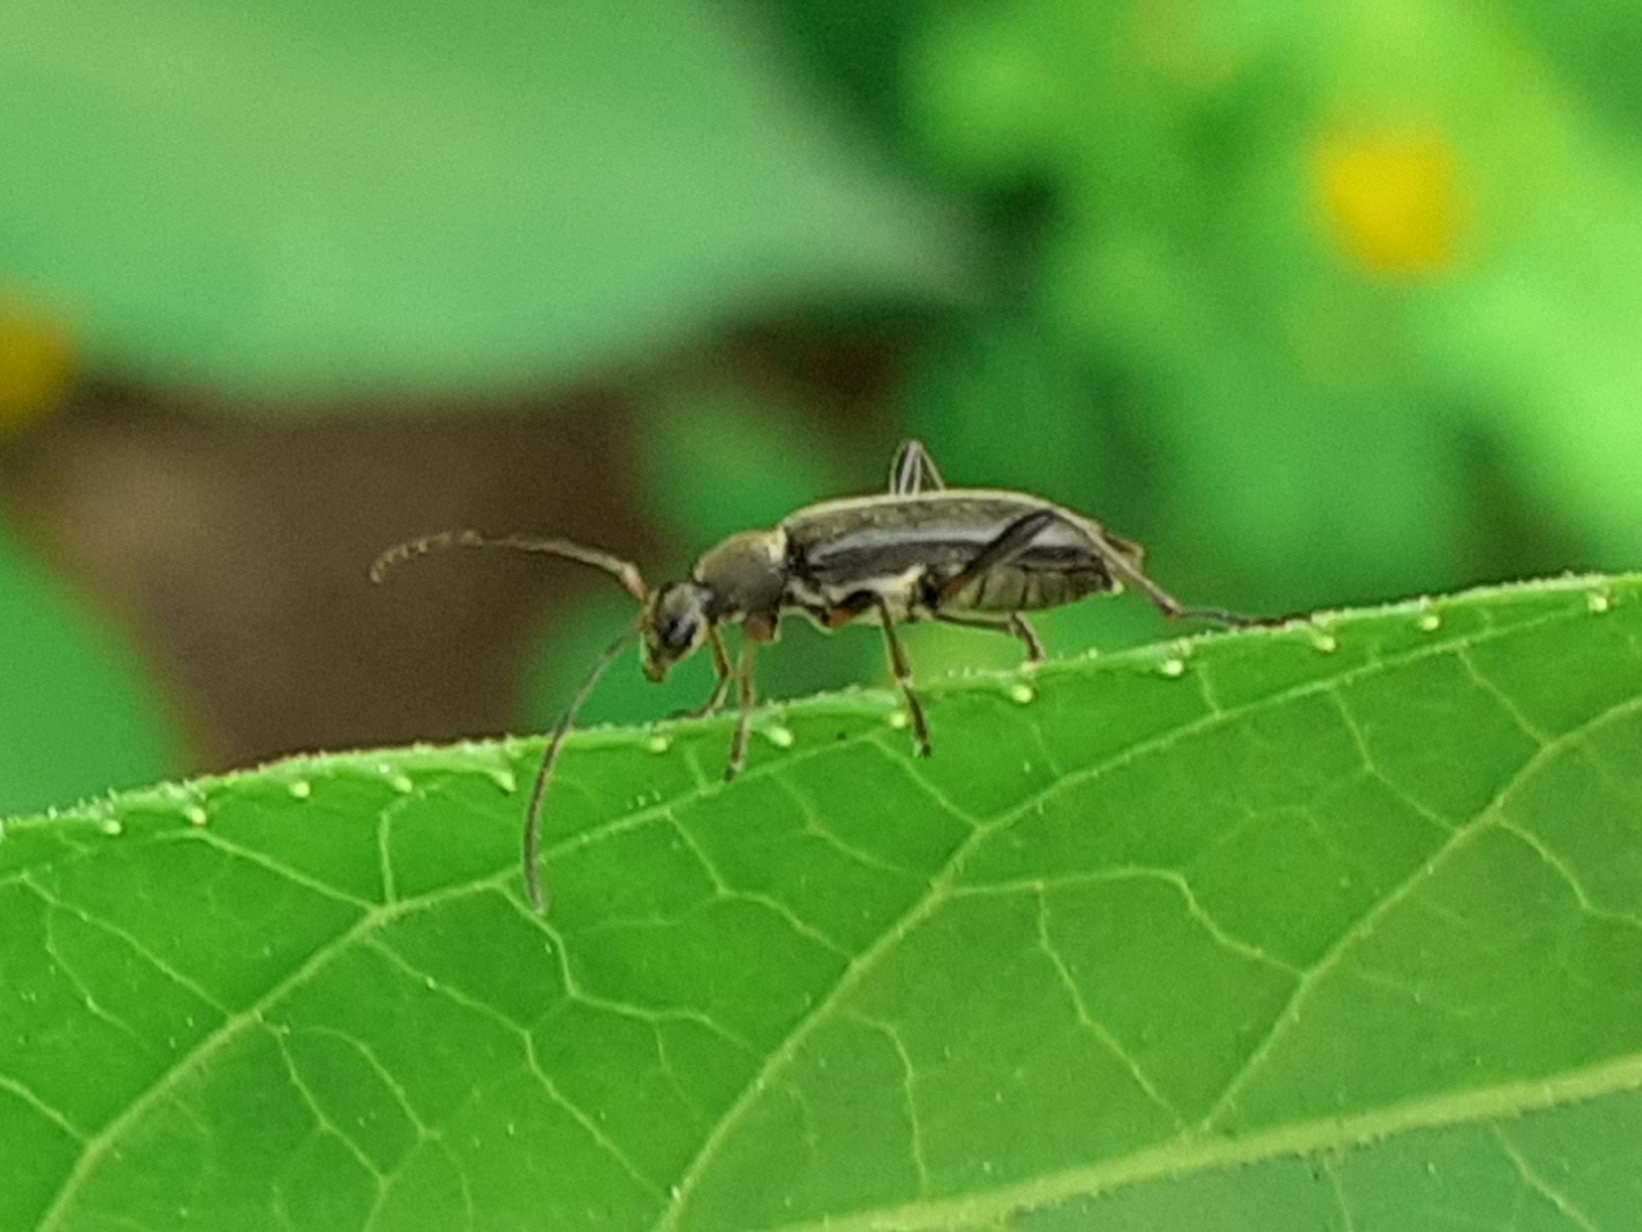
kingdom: Animalia
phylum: Arthropoda
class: Insecta
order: Coleoptera
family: Cerambycidae
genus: Grammoptera
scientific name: Grammoptera ruficornis
